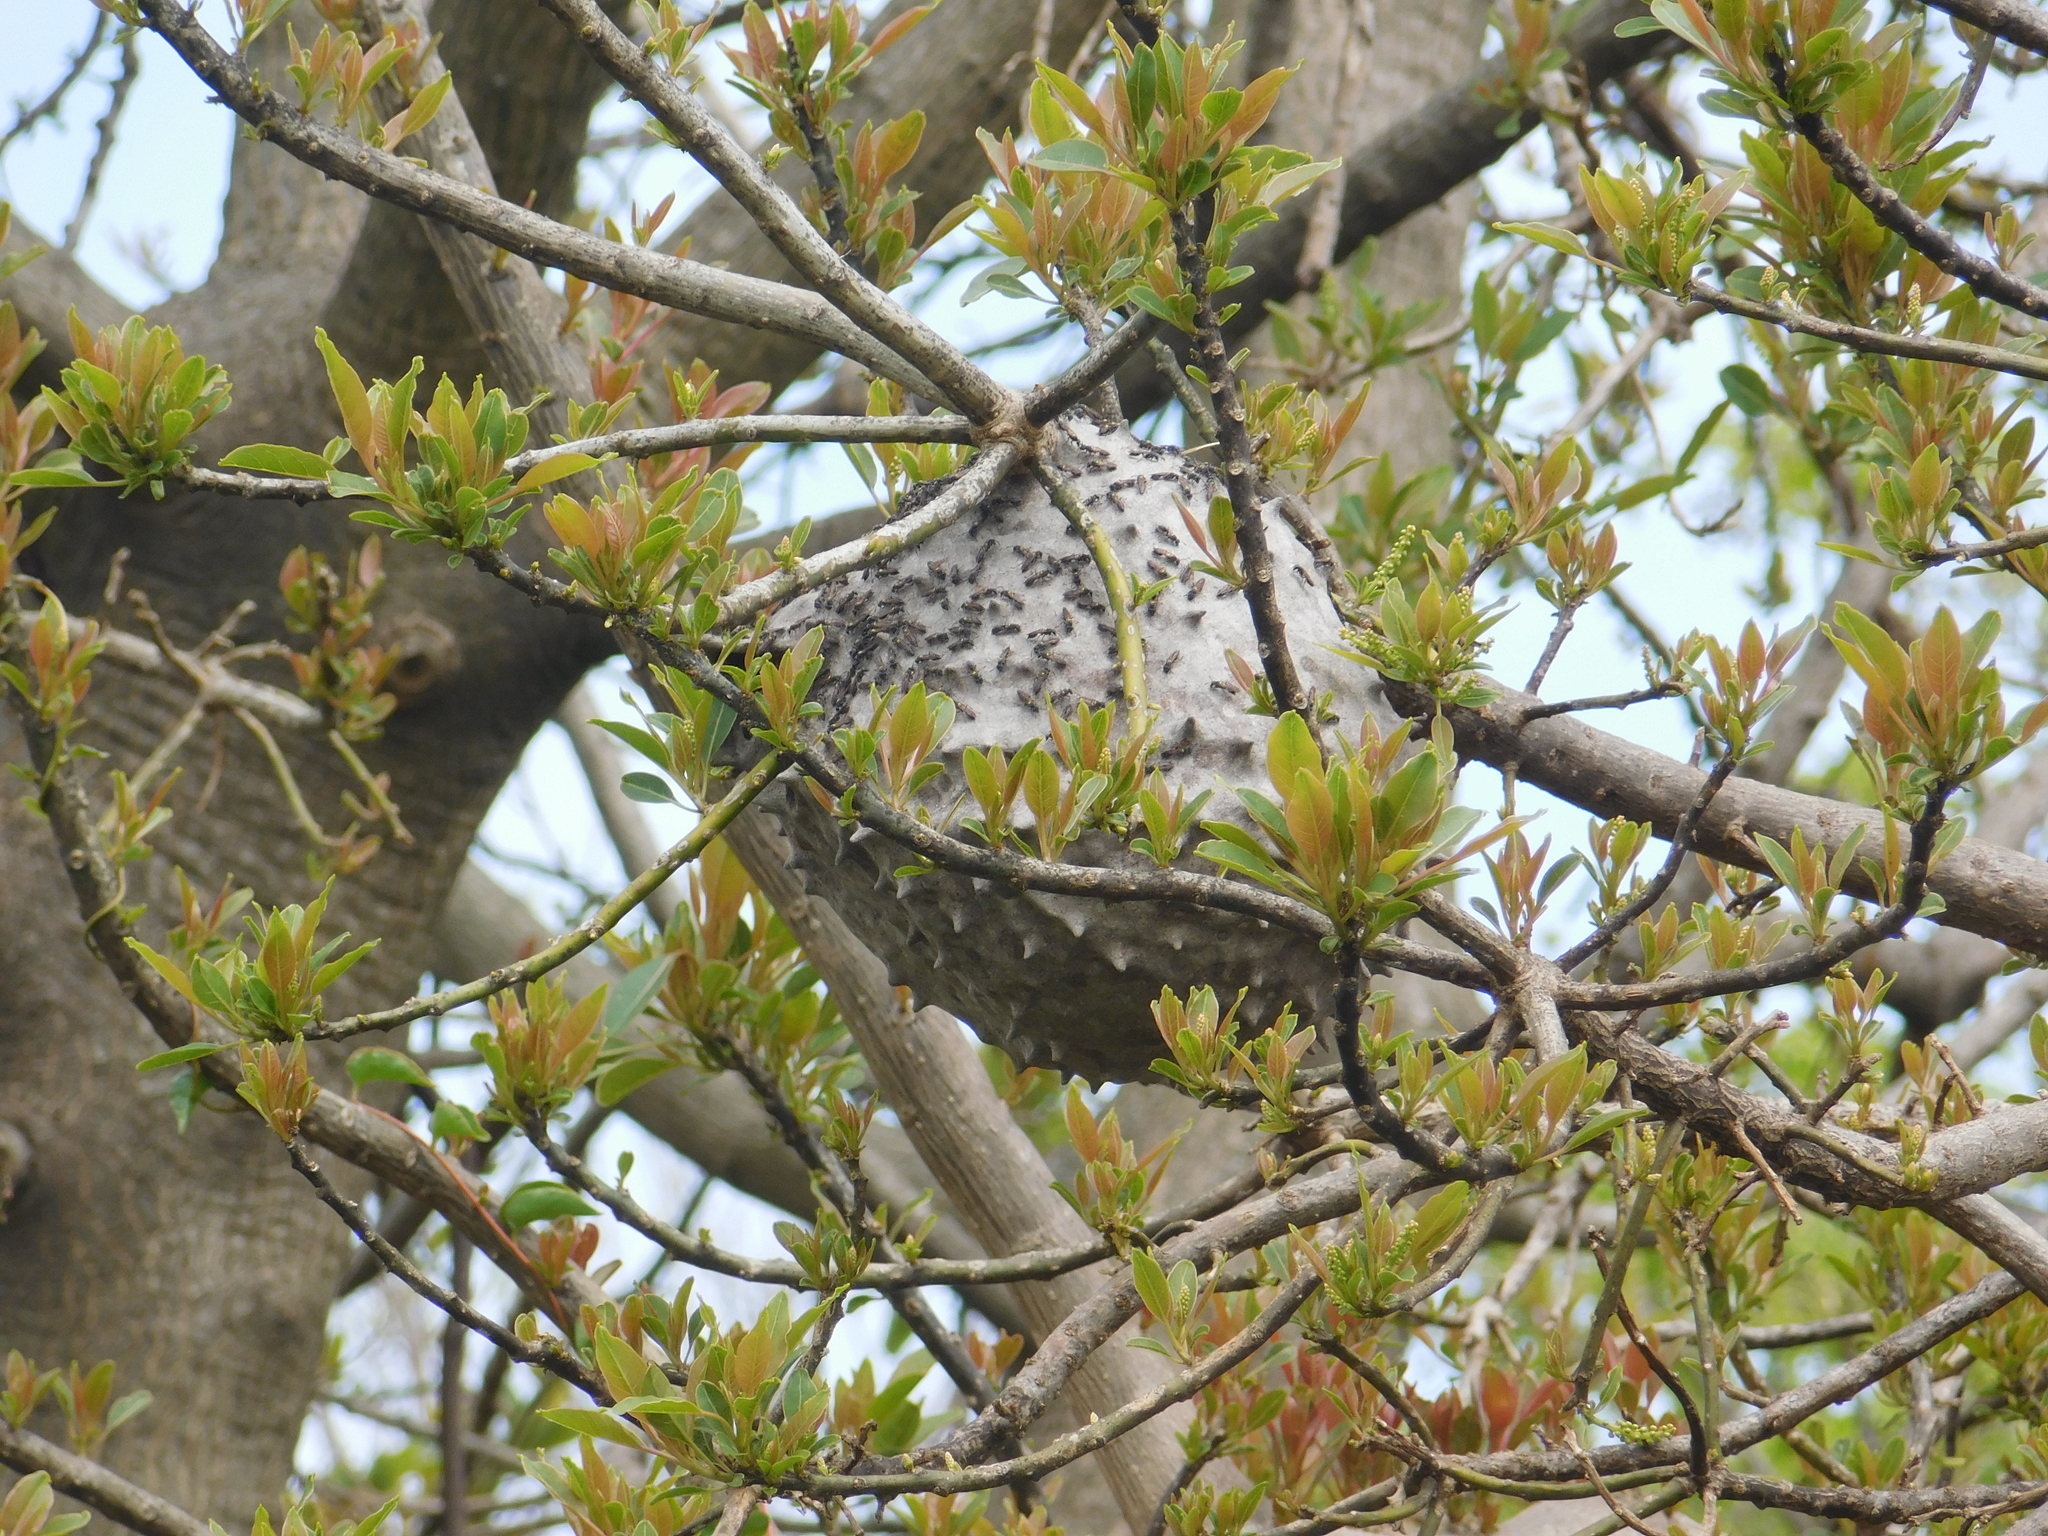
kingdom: Animalia
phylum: Arthropoda
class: Insecta
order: Hymenoptera
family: Eumenidae
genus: Polybia
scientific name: Polybia scutellaris
